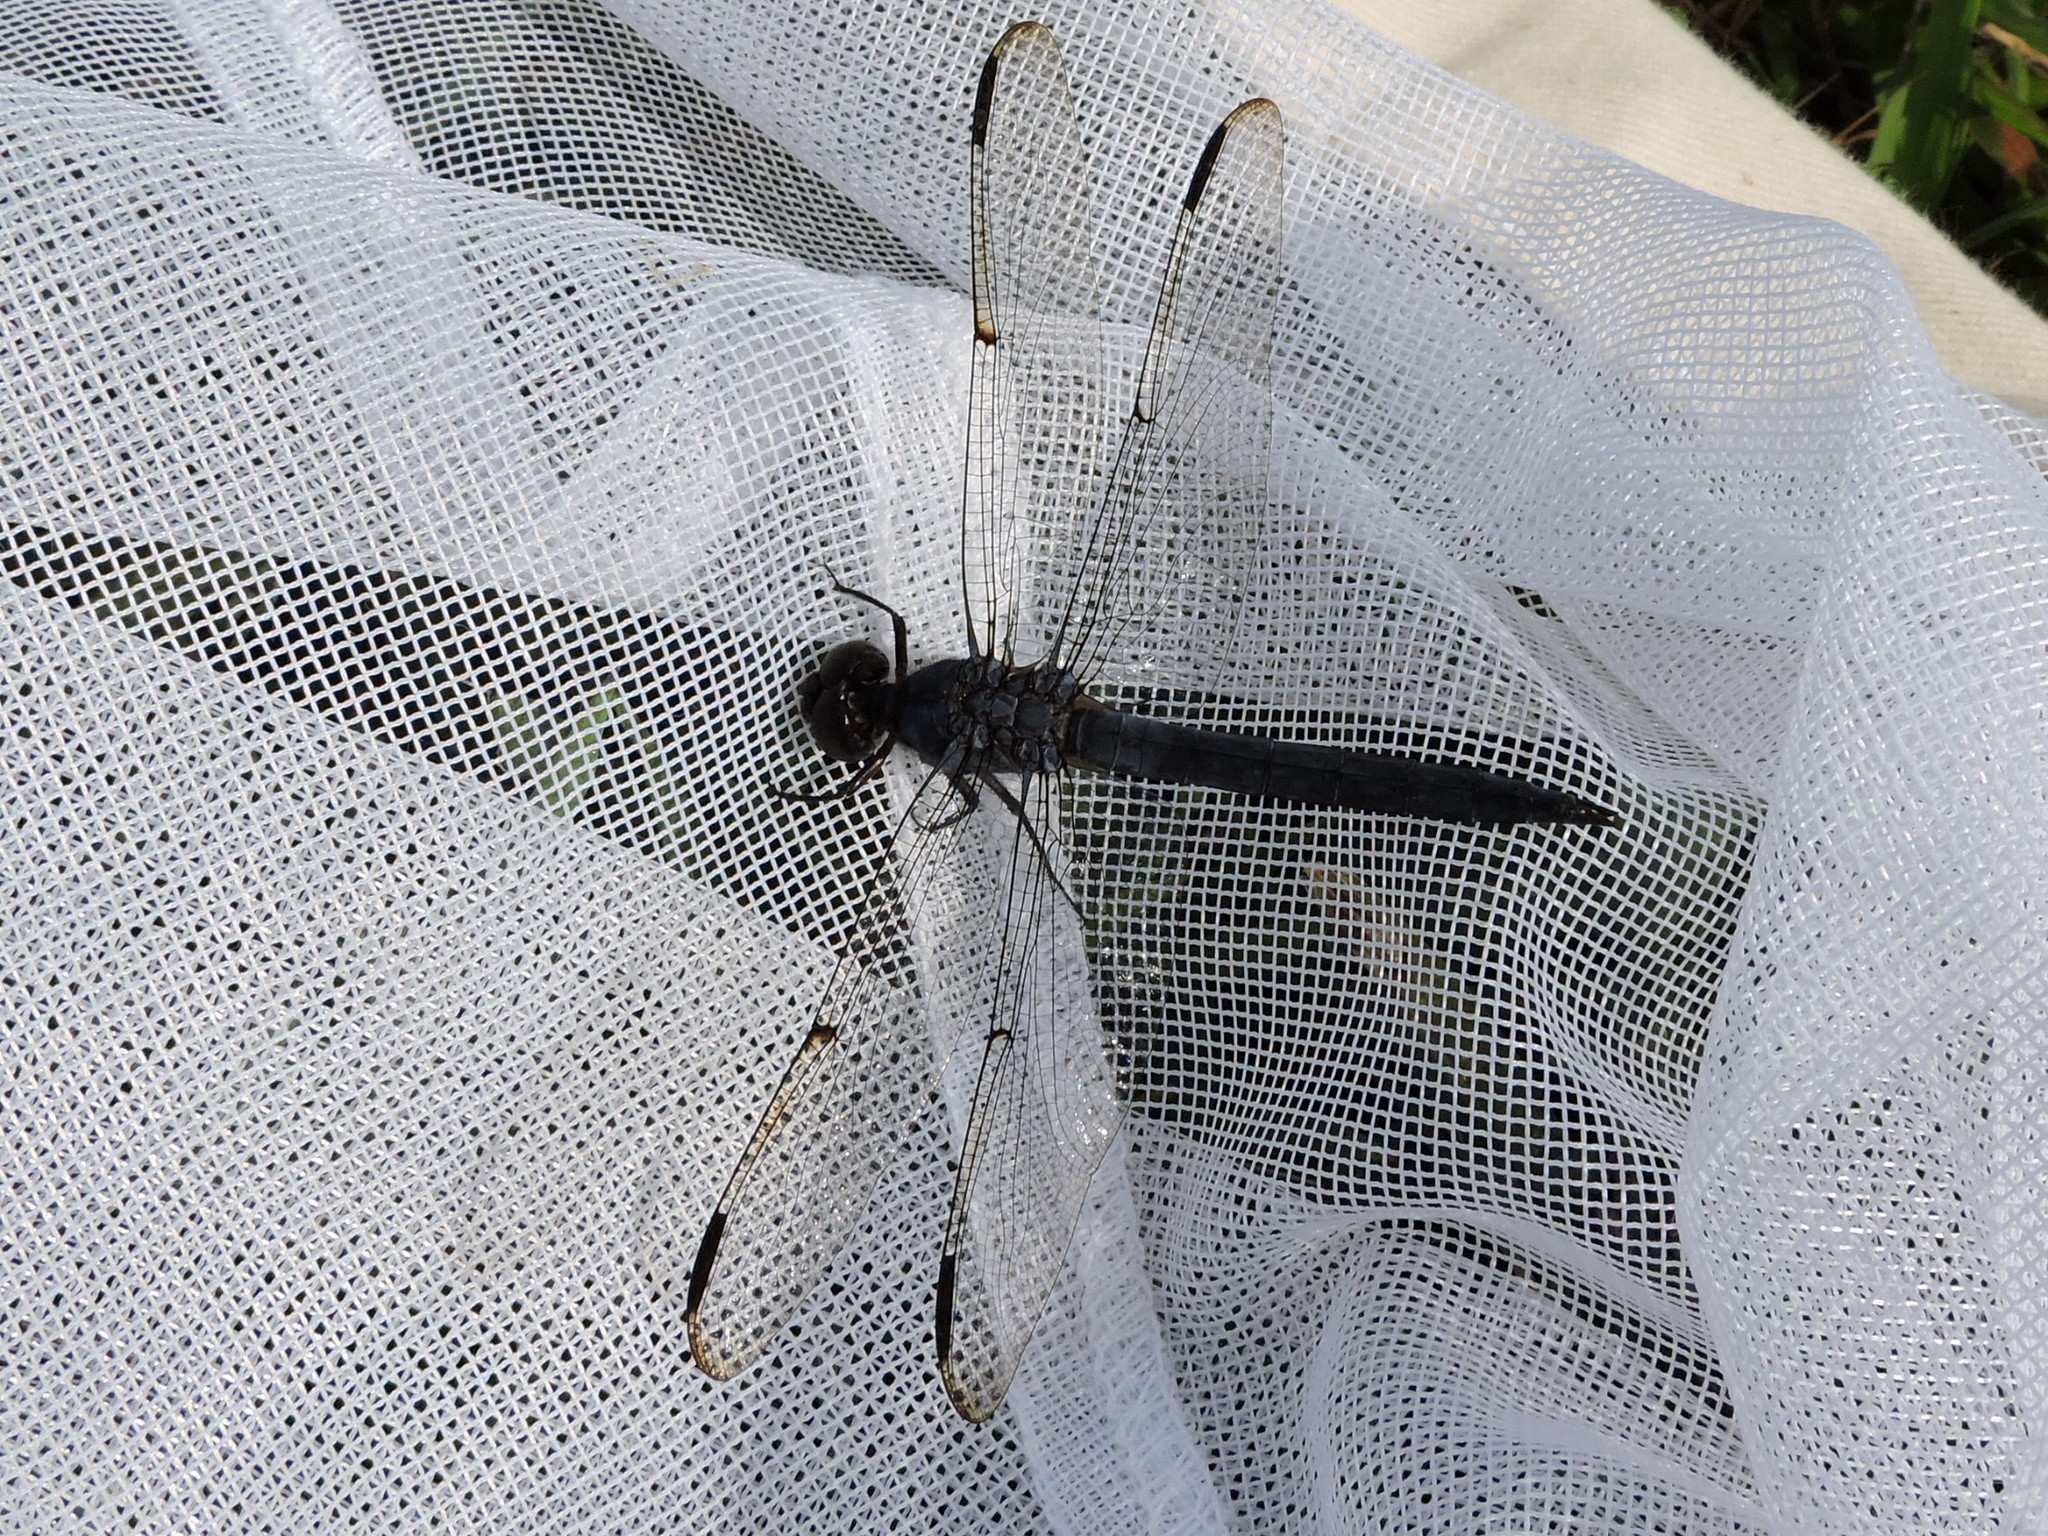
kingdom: Animalia
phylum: Arthropoda
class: Insecta
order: Odonata
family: Libellulidae
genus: Libellula
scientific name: Libellula incesta
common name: Slaty skimmer
